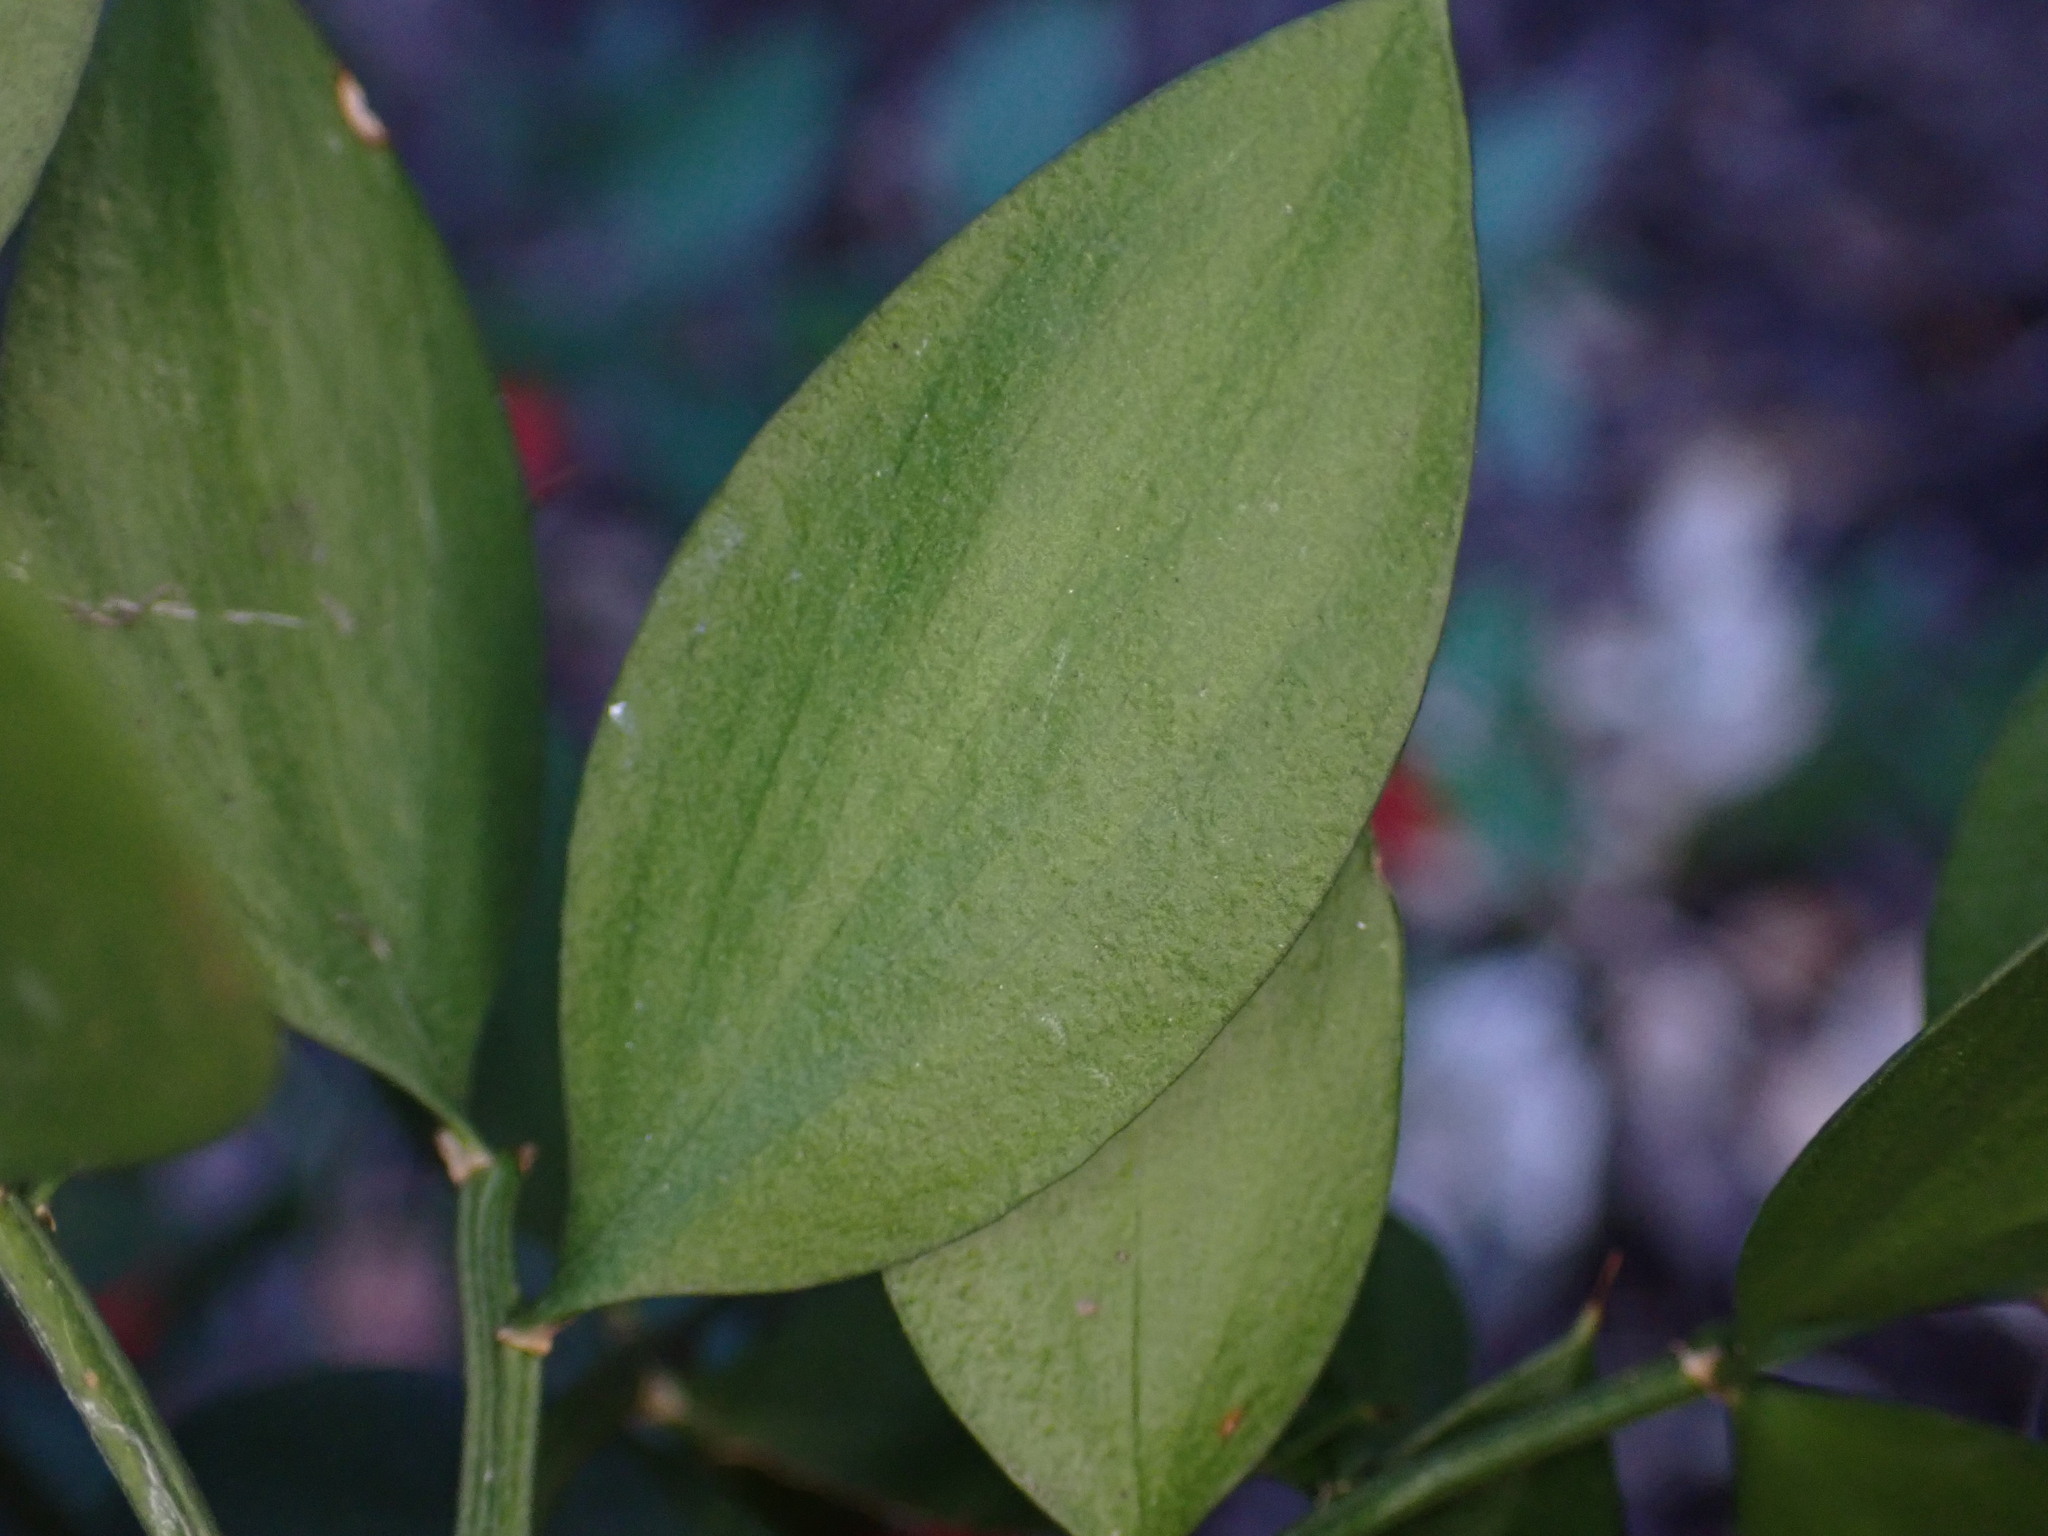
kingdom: Plantae
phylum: Tracheophyta
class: Liliopsida
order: Asparagales
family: Asparagaceae
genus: Ruscus
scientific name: Ruscus aculeatus
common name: Butcher's-broom
